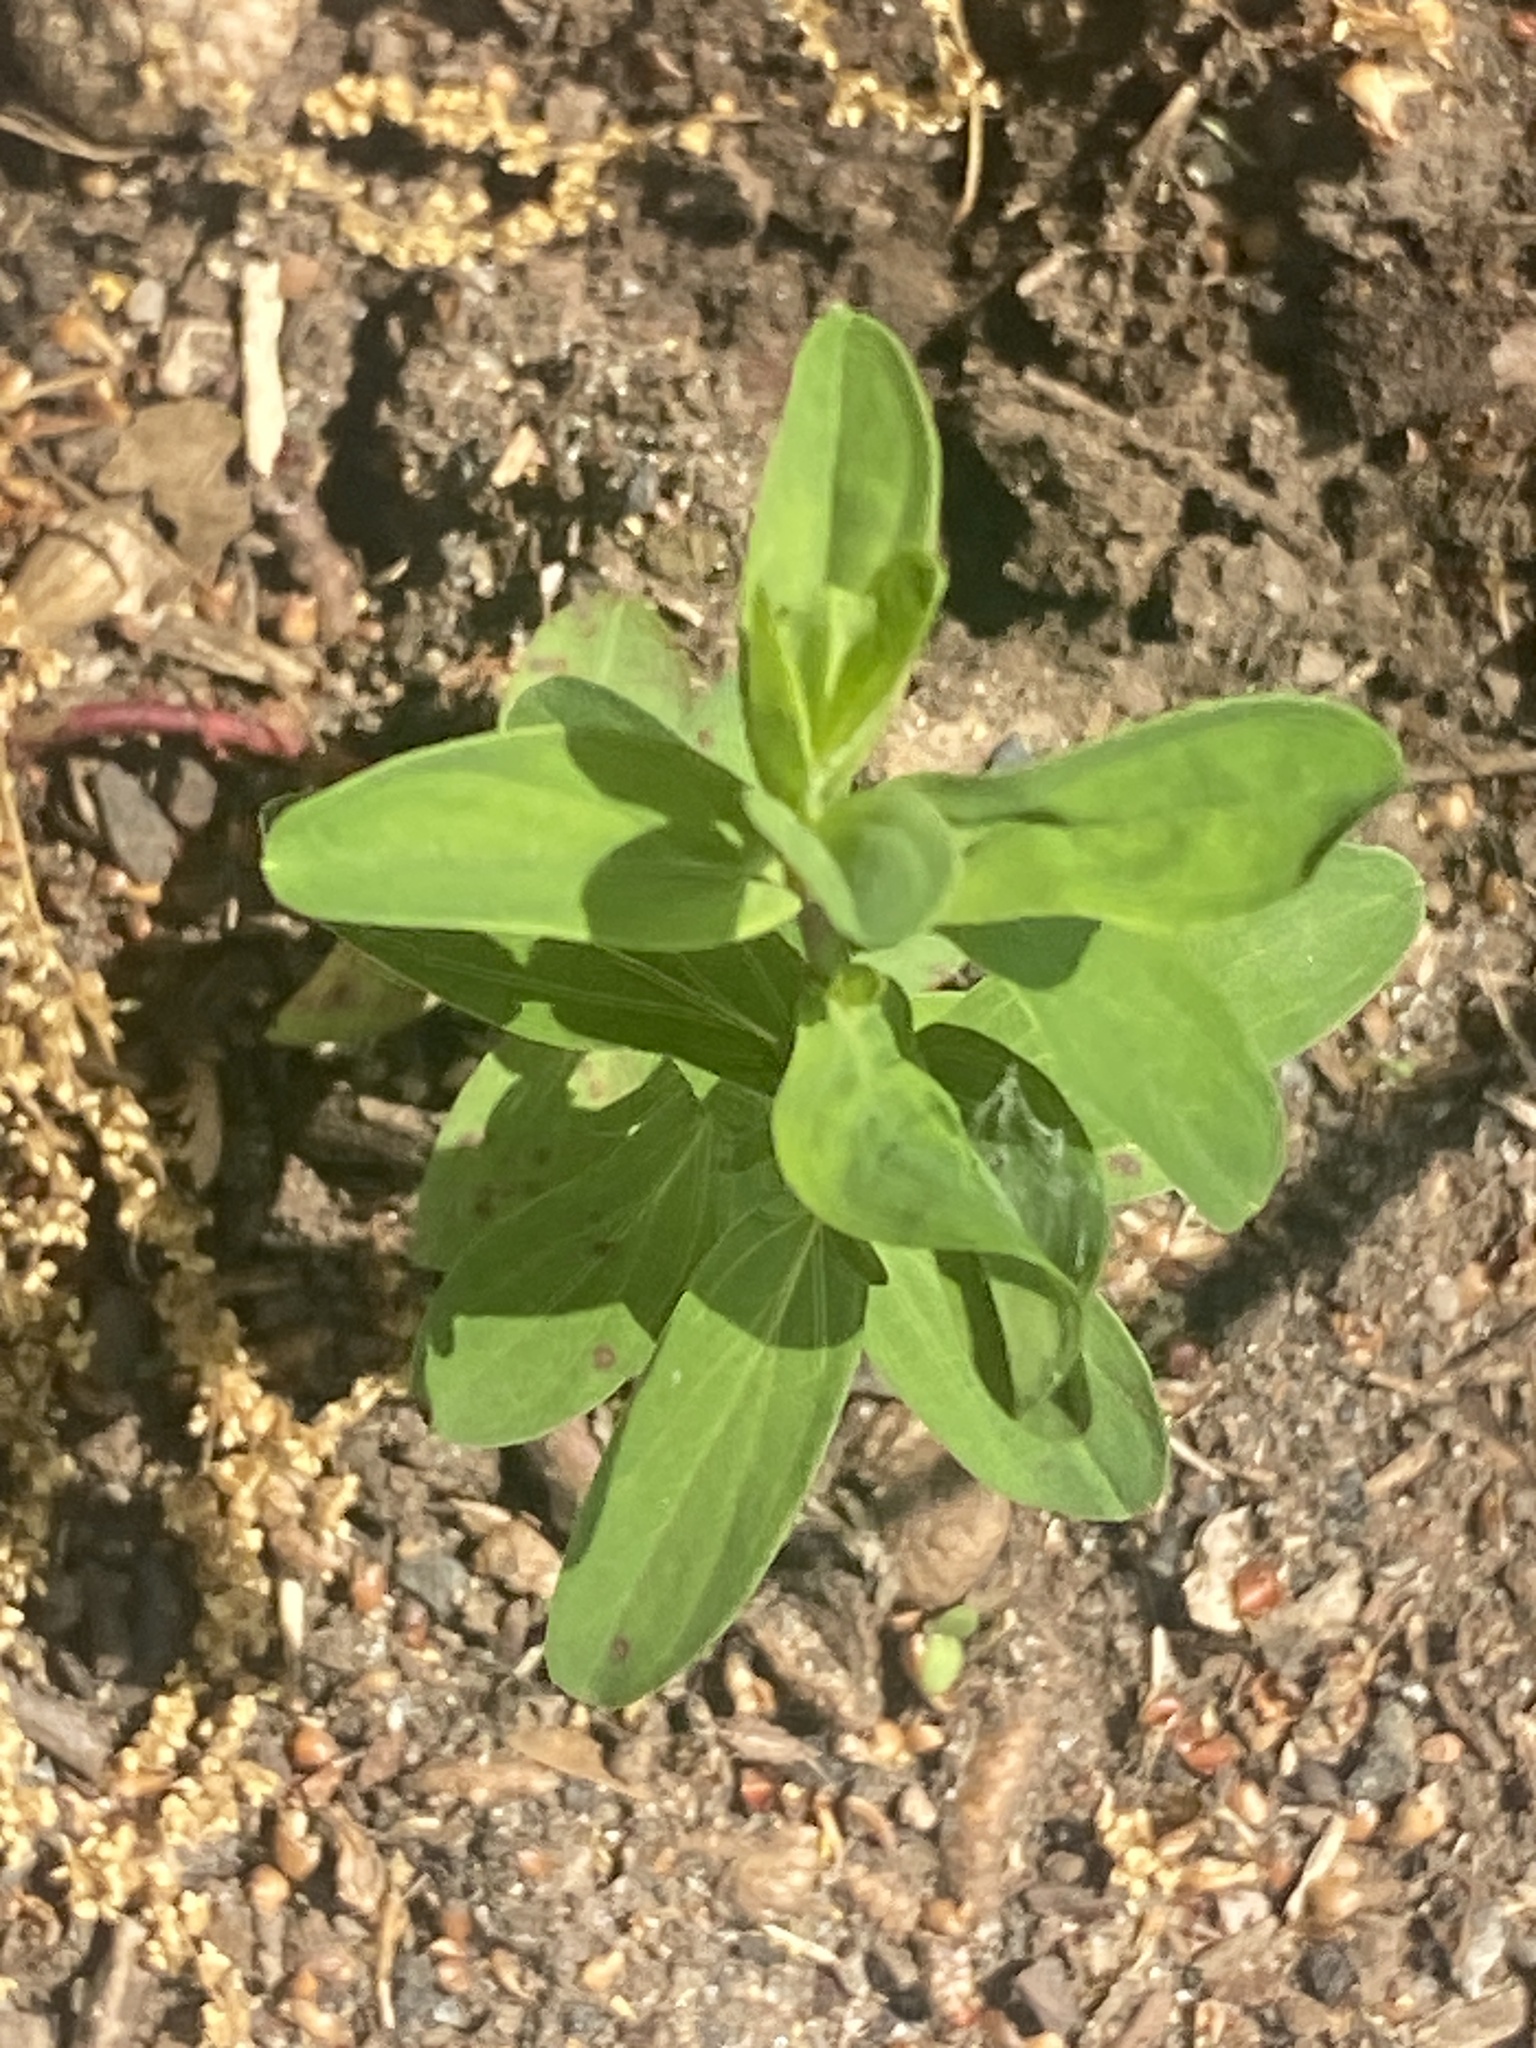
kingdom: Plantae
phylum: Tracheophyta
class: Magnoliopsida
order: Malpighiales
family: Hypericaceae
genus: Hypericum
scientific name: Hypericum perforatum
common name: Common st. johnswort
